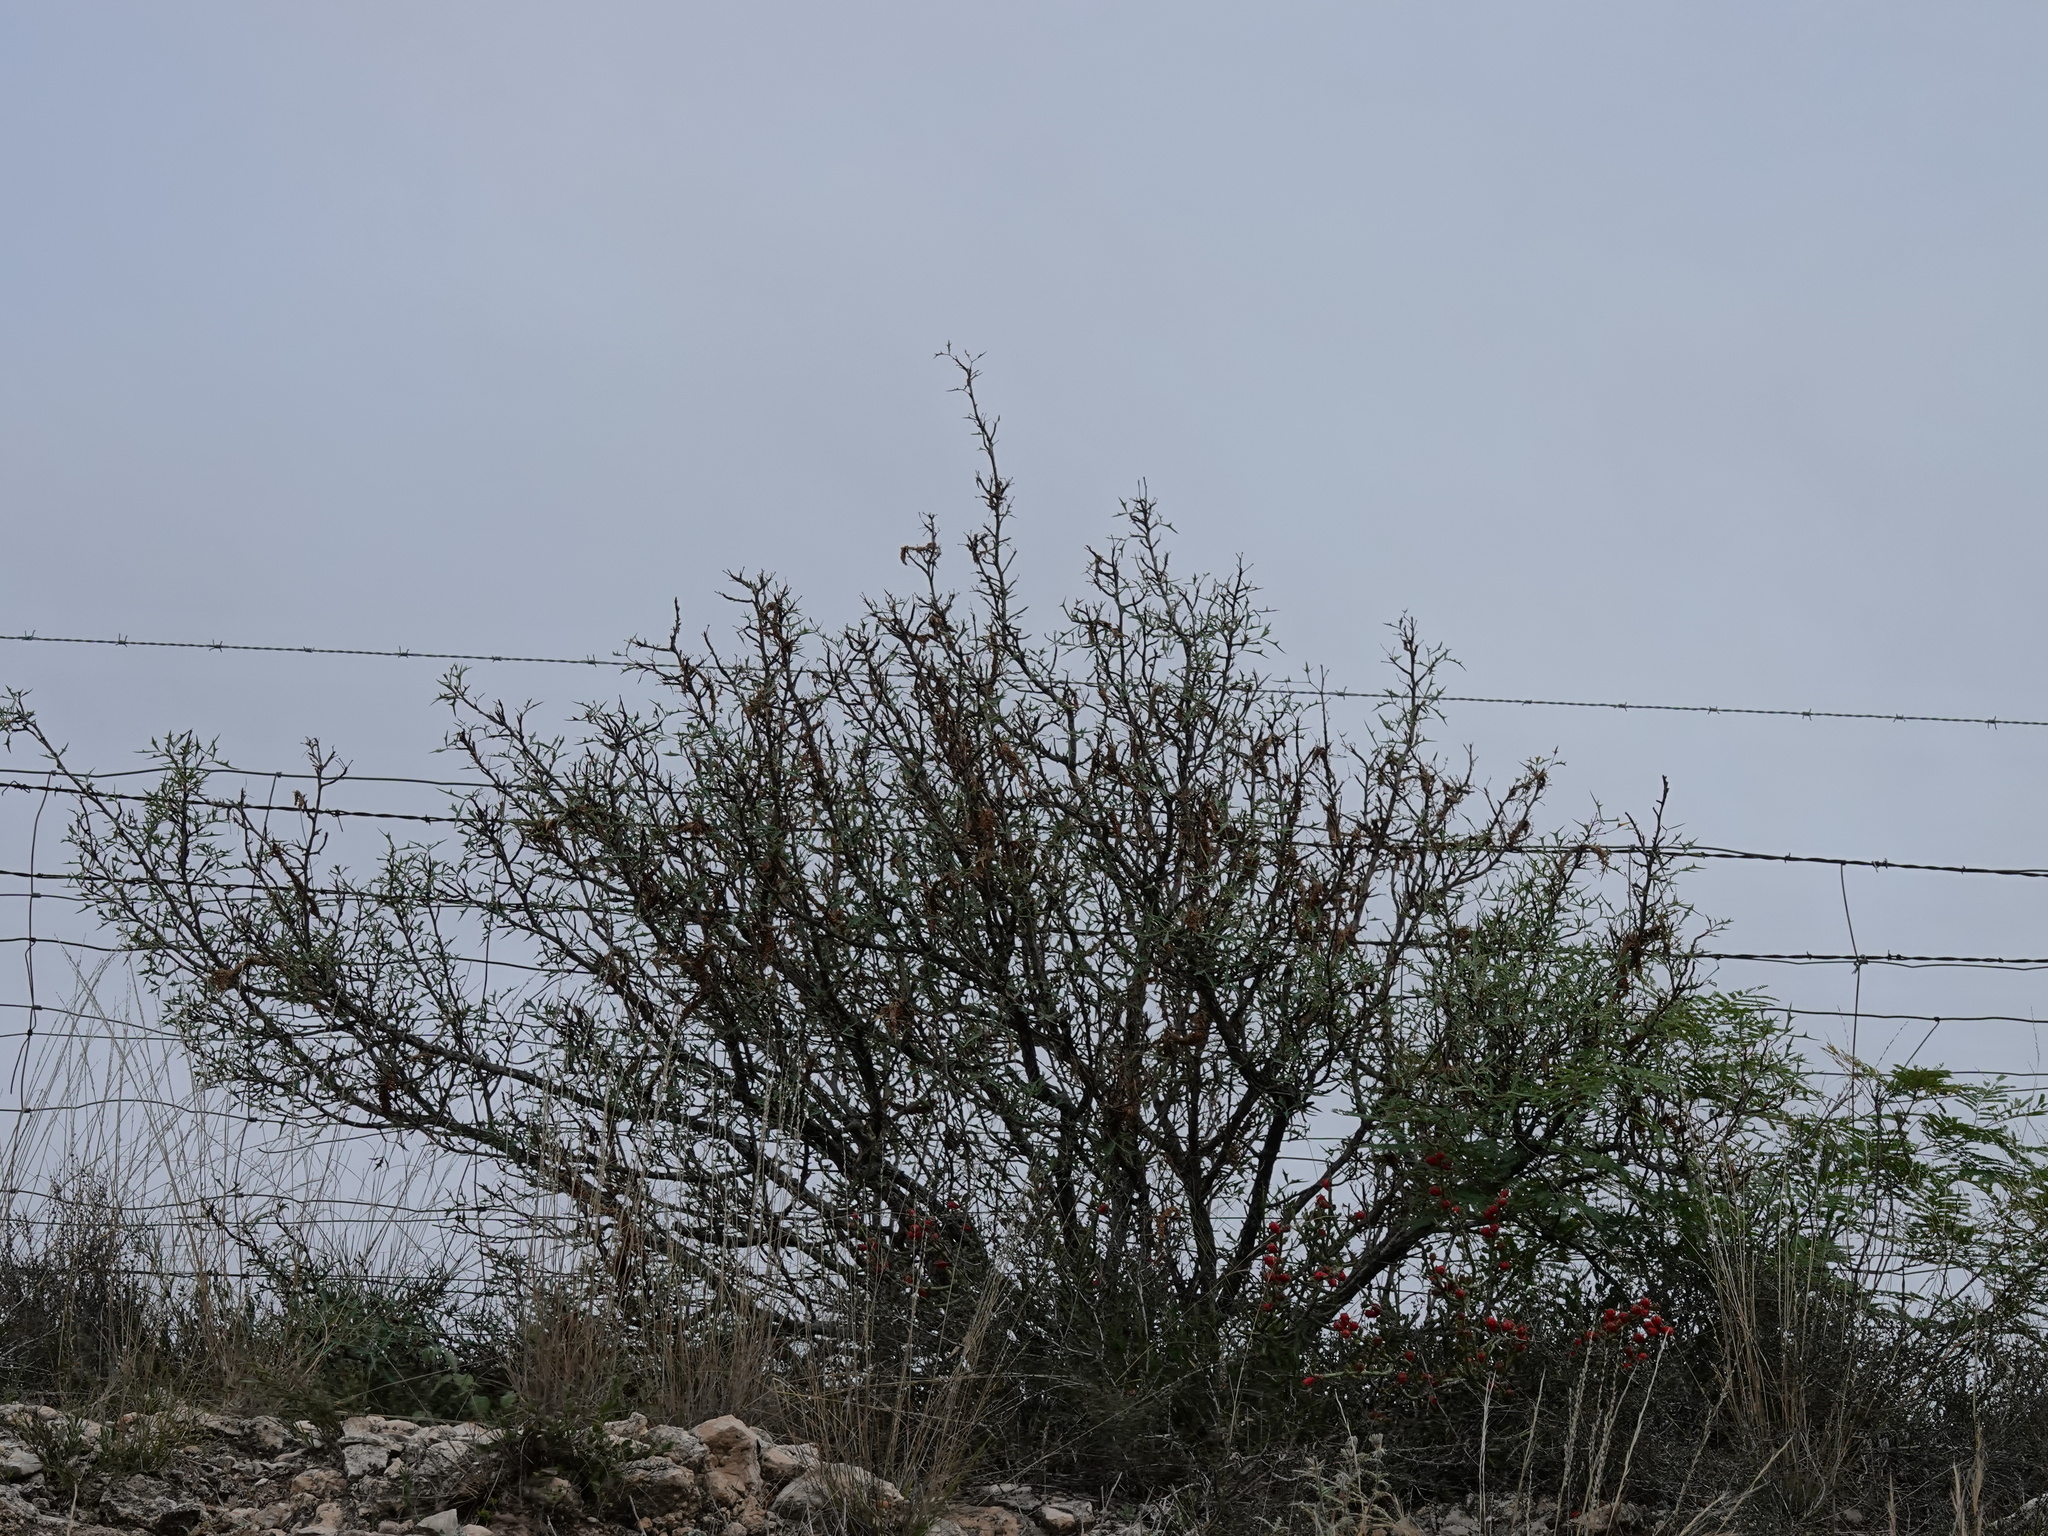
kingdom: Plantae
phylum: Tracheophyta
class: Magnoliopsida
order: Fabales
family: Fabaceae
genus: Prosopis
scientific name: Prosopis glandulosa
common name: Honey mesquite
